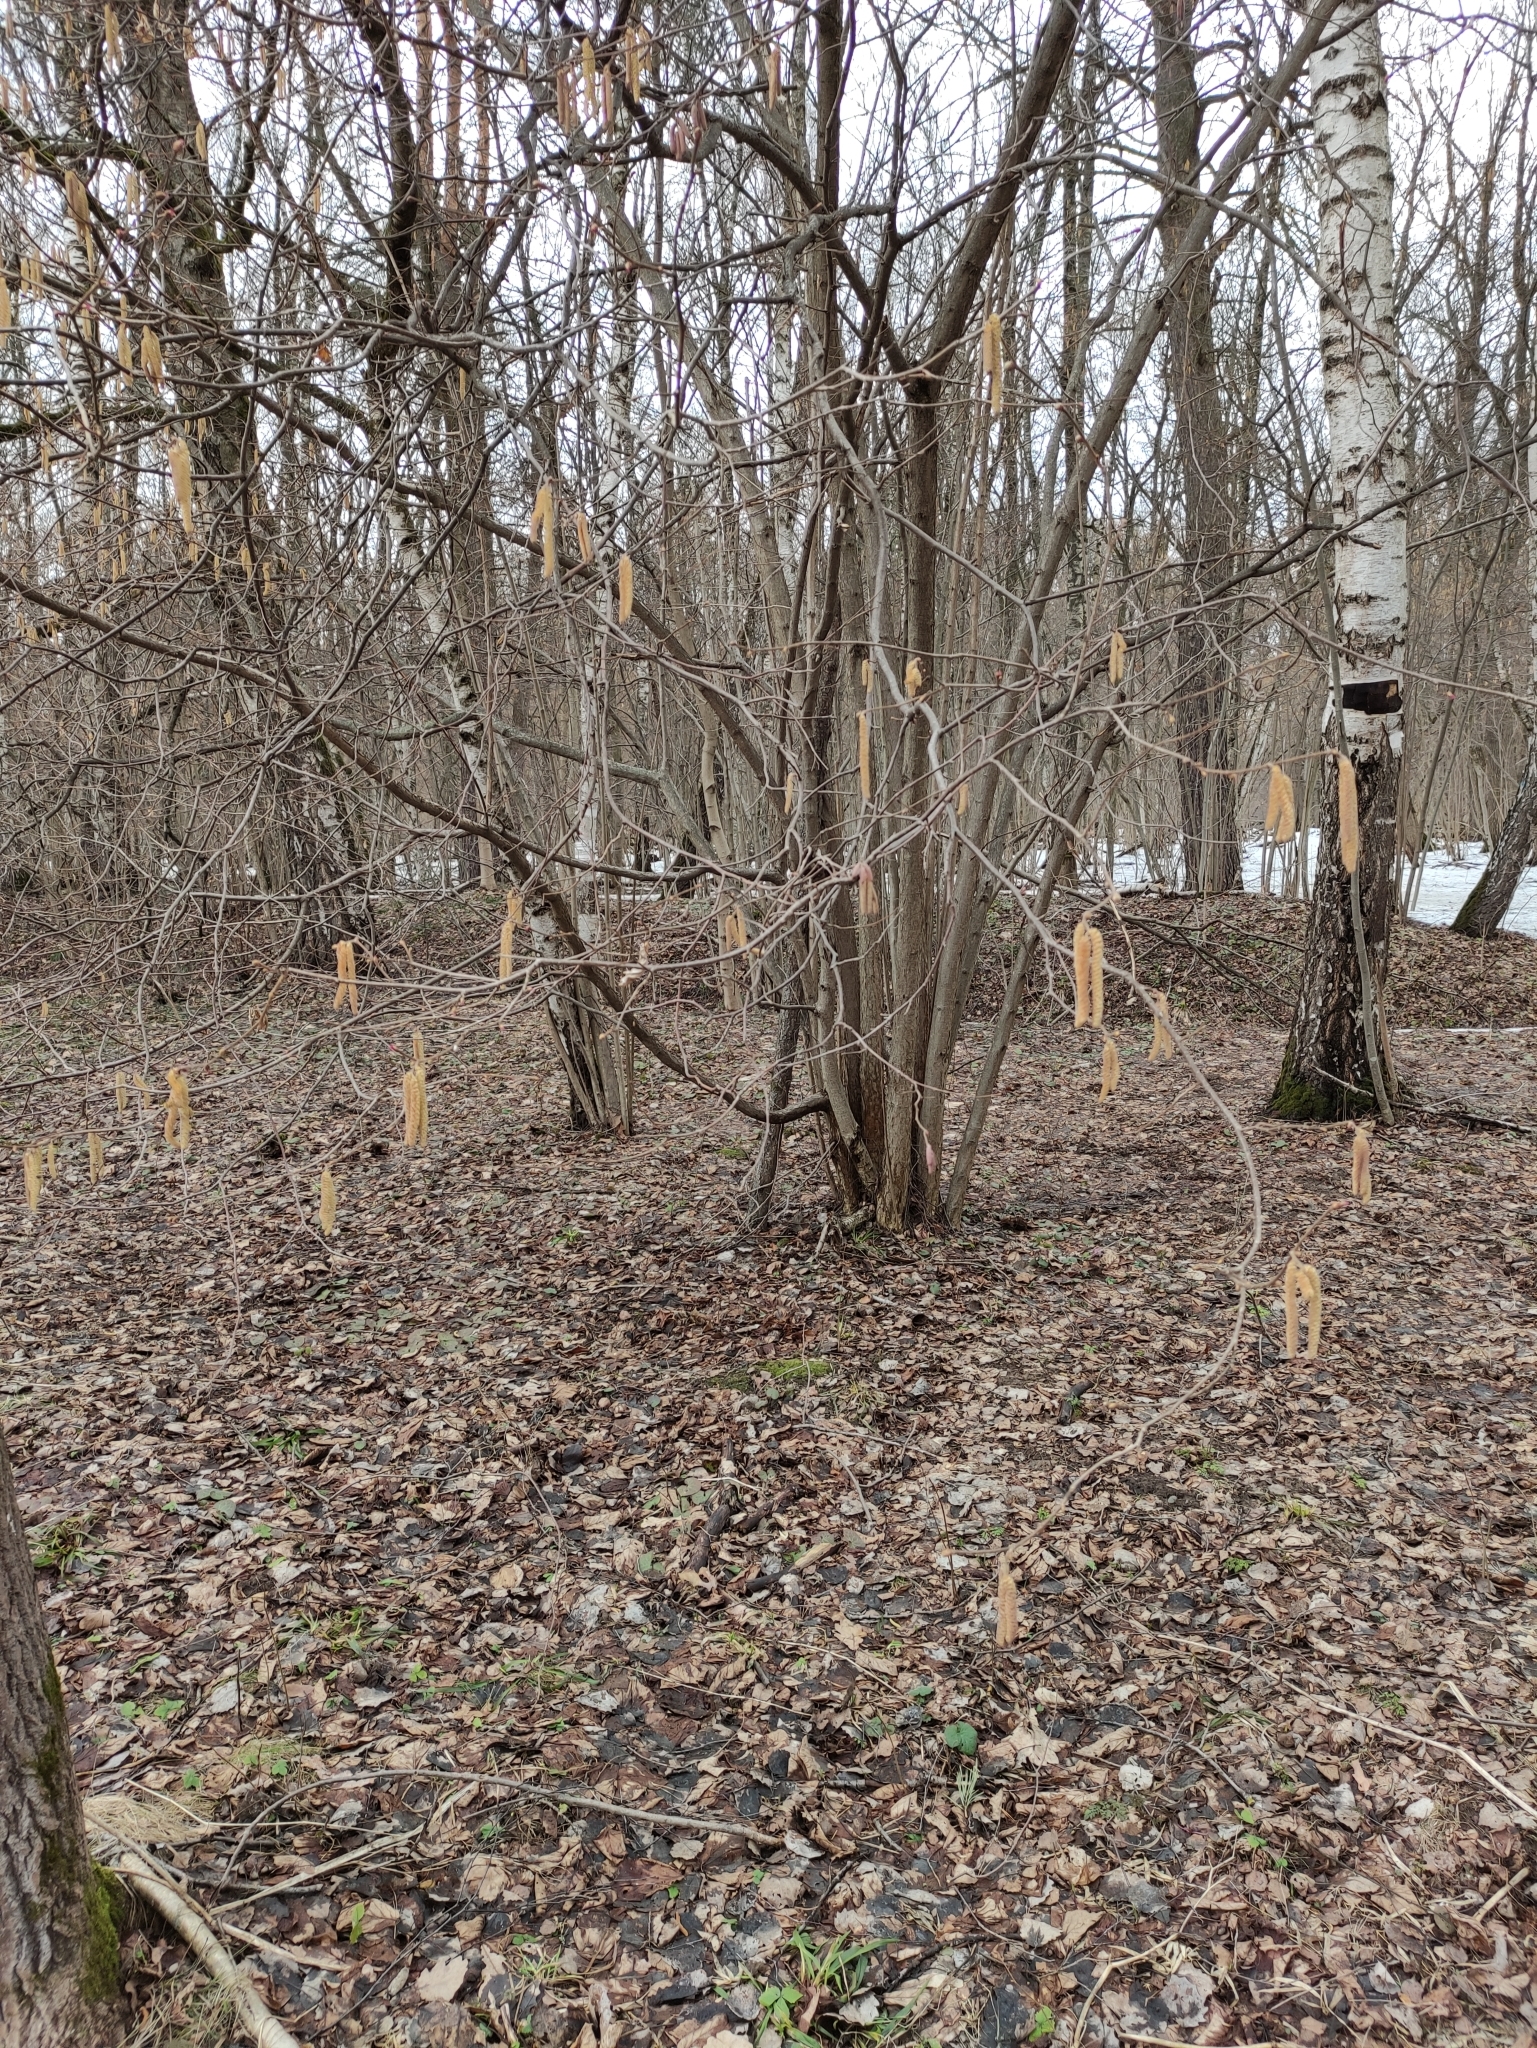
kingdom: Plantae
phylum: Tracheophyta
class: Magnoliopsida
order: Fagales
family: Betulaceae
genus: Corylus
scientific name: Corylus avellana
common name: European hazel
